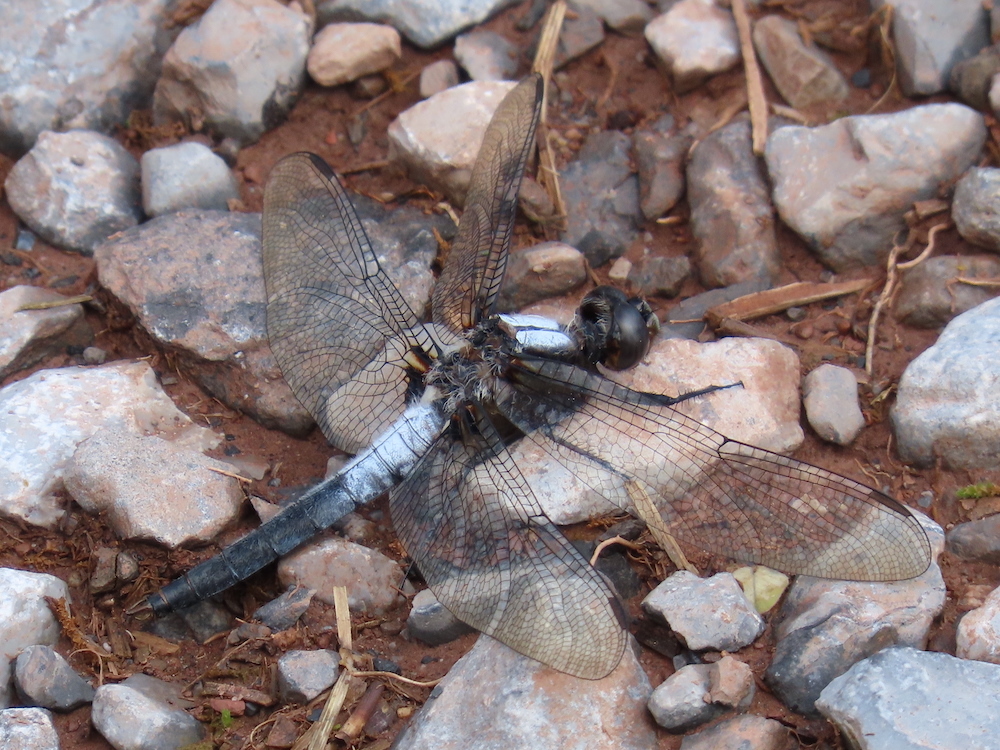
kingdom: Animalia
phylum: Arthropoda
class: Insecta
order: Odonata
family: Libellulidae
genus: Ladona
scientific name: Ladona julia
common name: Chalk-fronted corporal
